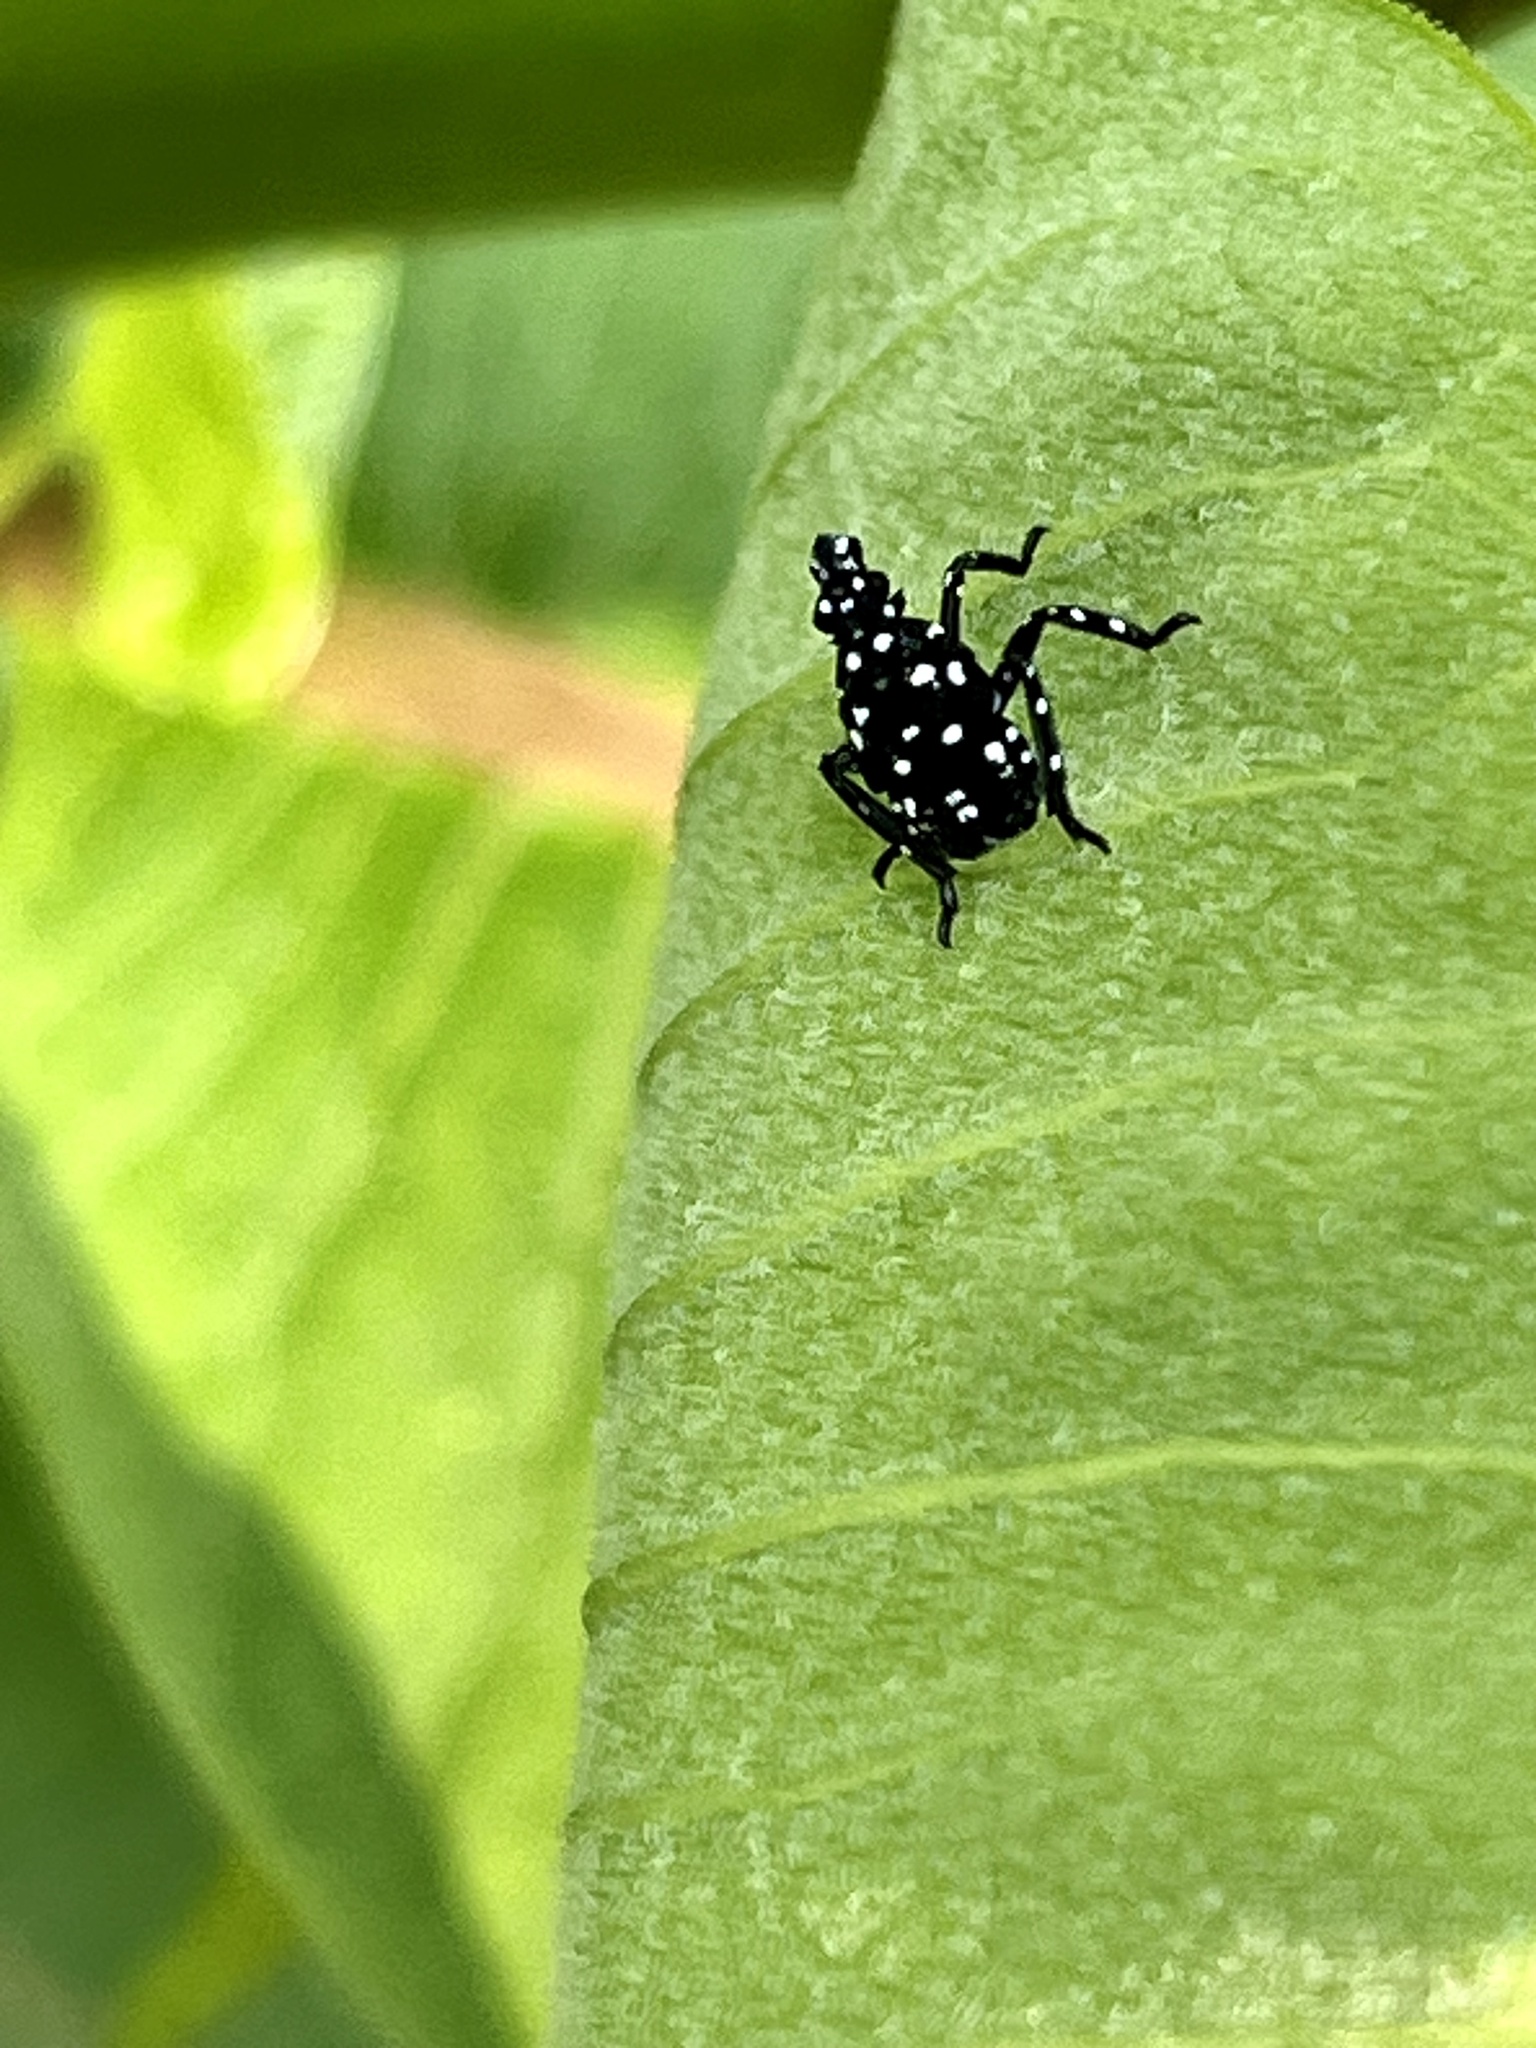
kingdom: Animalia
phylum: Arthropoda
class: Insecta
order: Hemiptera
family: Fulgoridae
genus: Lycorma
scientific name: Lycorma delicatula
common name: Spotted lanternfly
